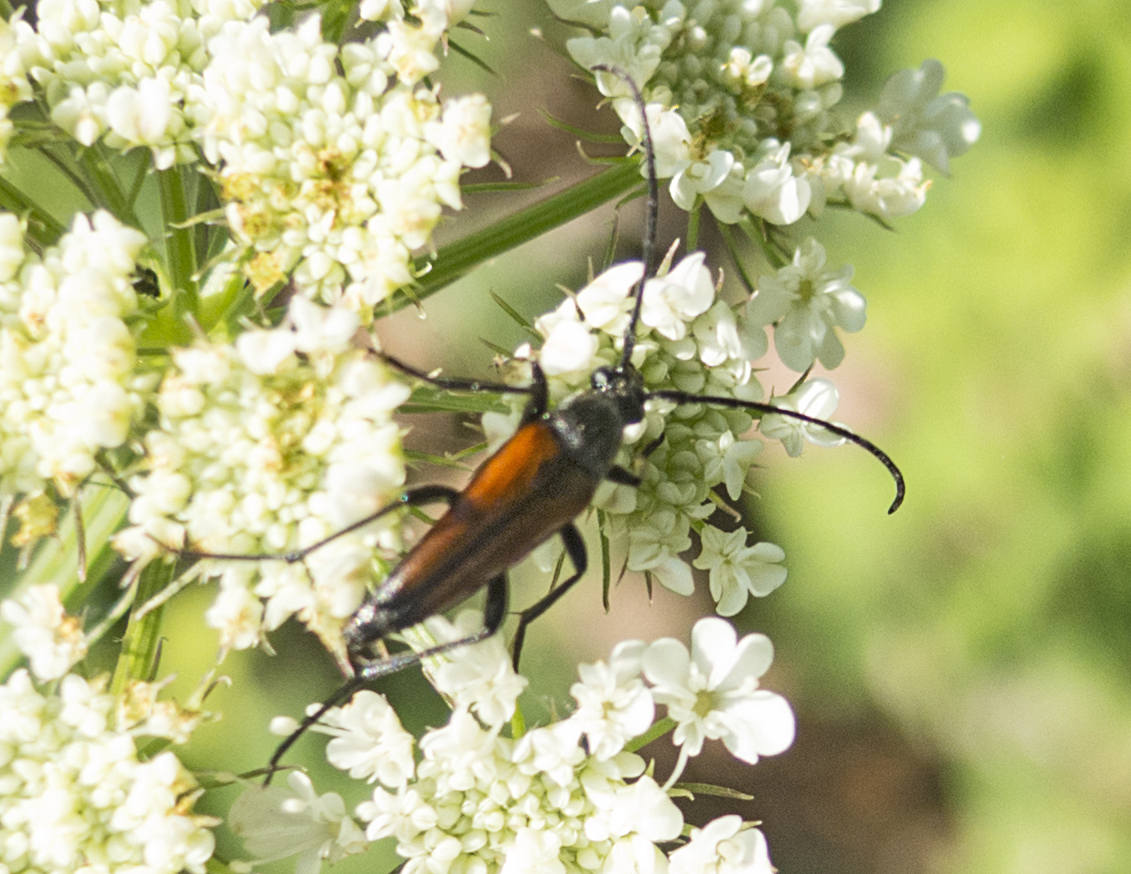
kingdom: Animalia
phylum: Arthropoda
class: Insecta
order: Coleoptera
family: Cerambycidae
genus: Stenurella
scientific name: Stenurella melanura
